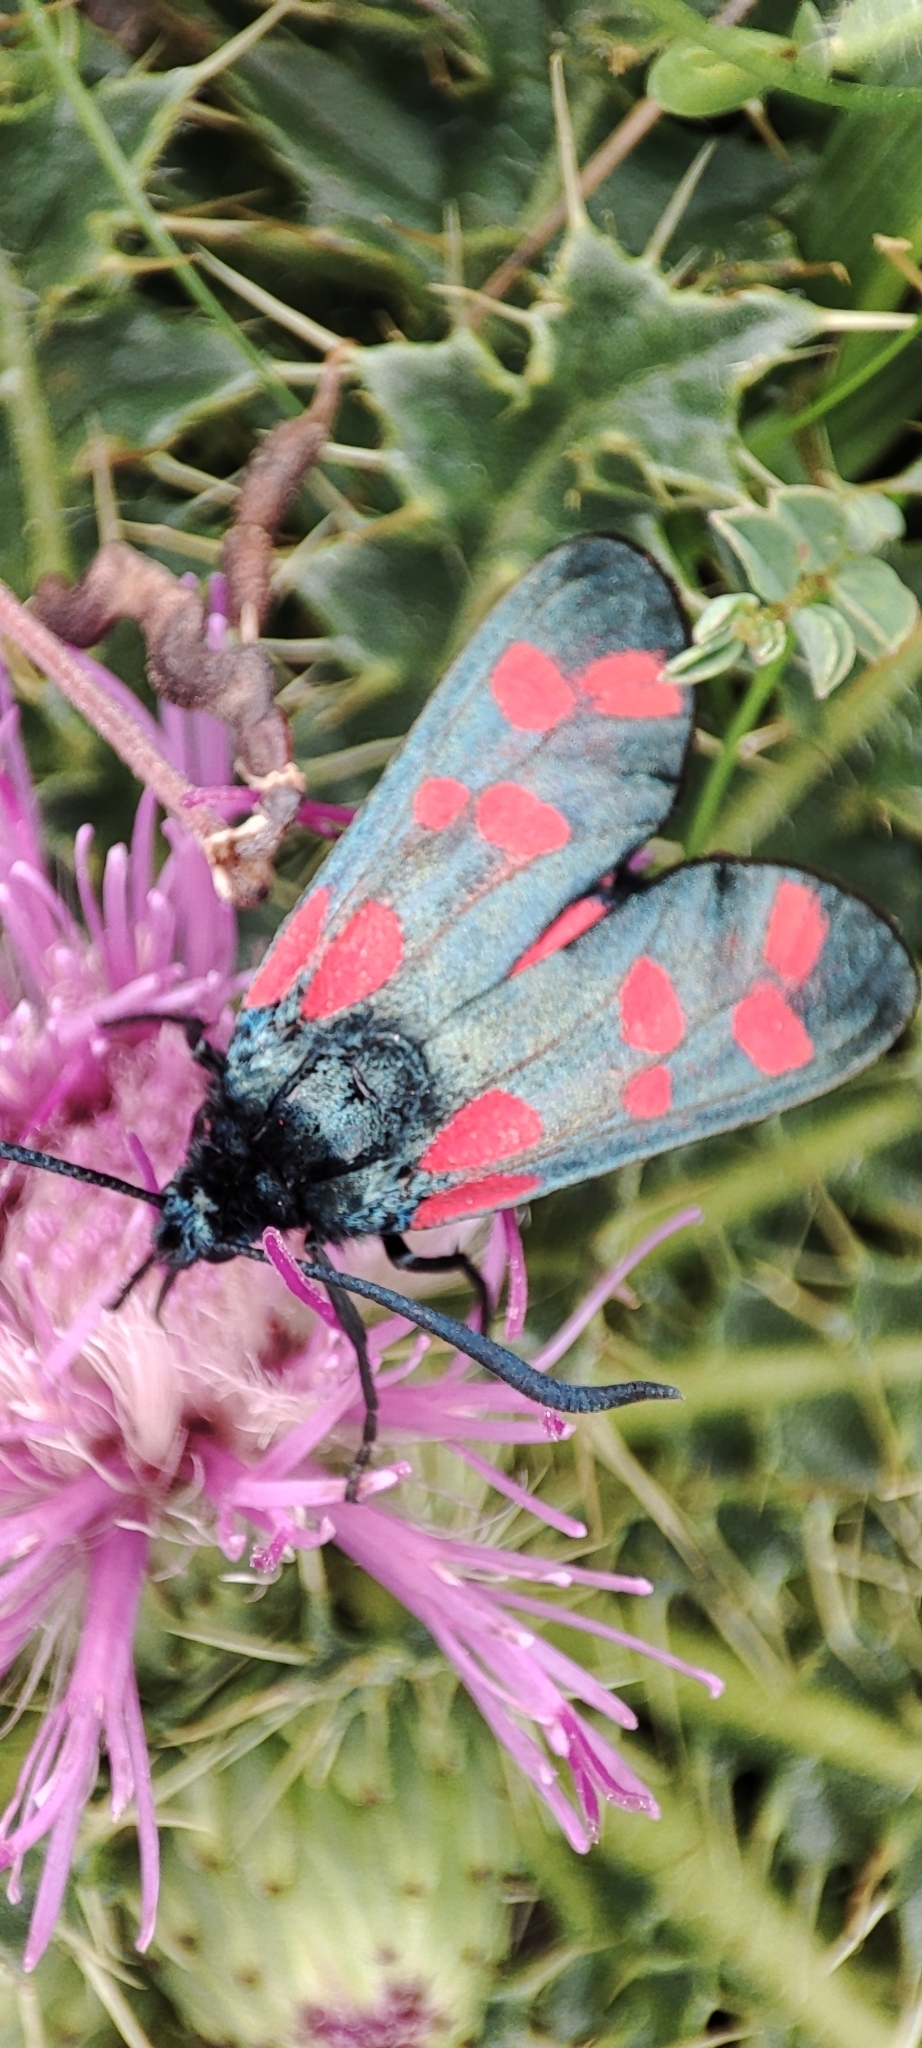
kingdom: Animalia
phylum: Arthropoda
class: Insecta
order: Lepidoptera
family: Zygaenidae
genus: Zygaena
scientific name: Zygaena filipendulae
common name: Six-spot burnet
